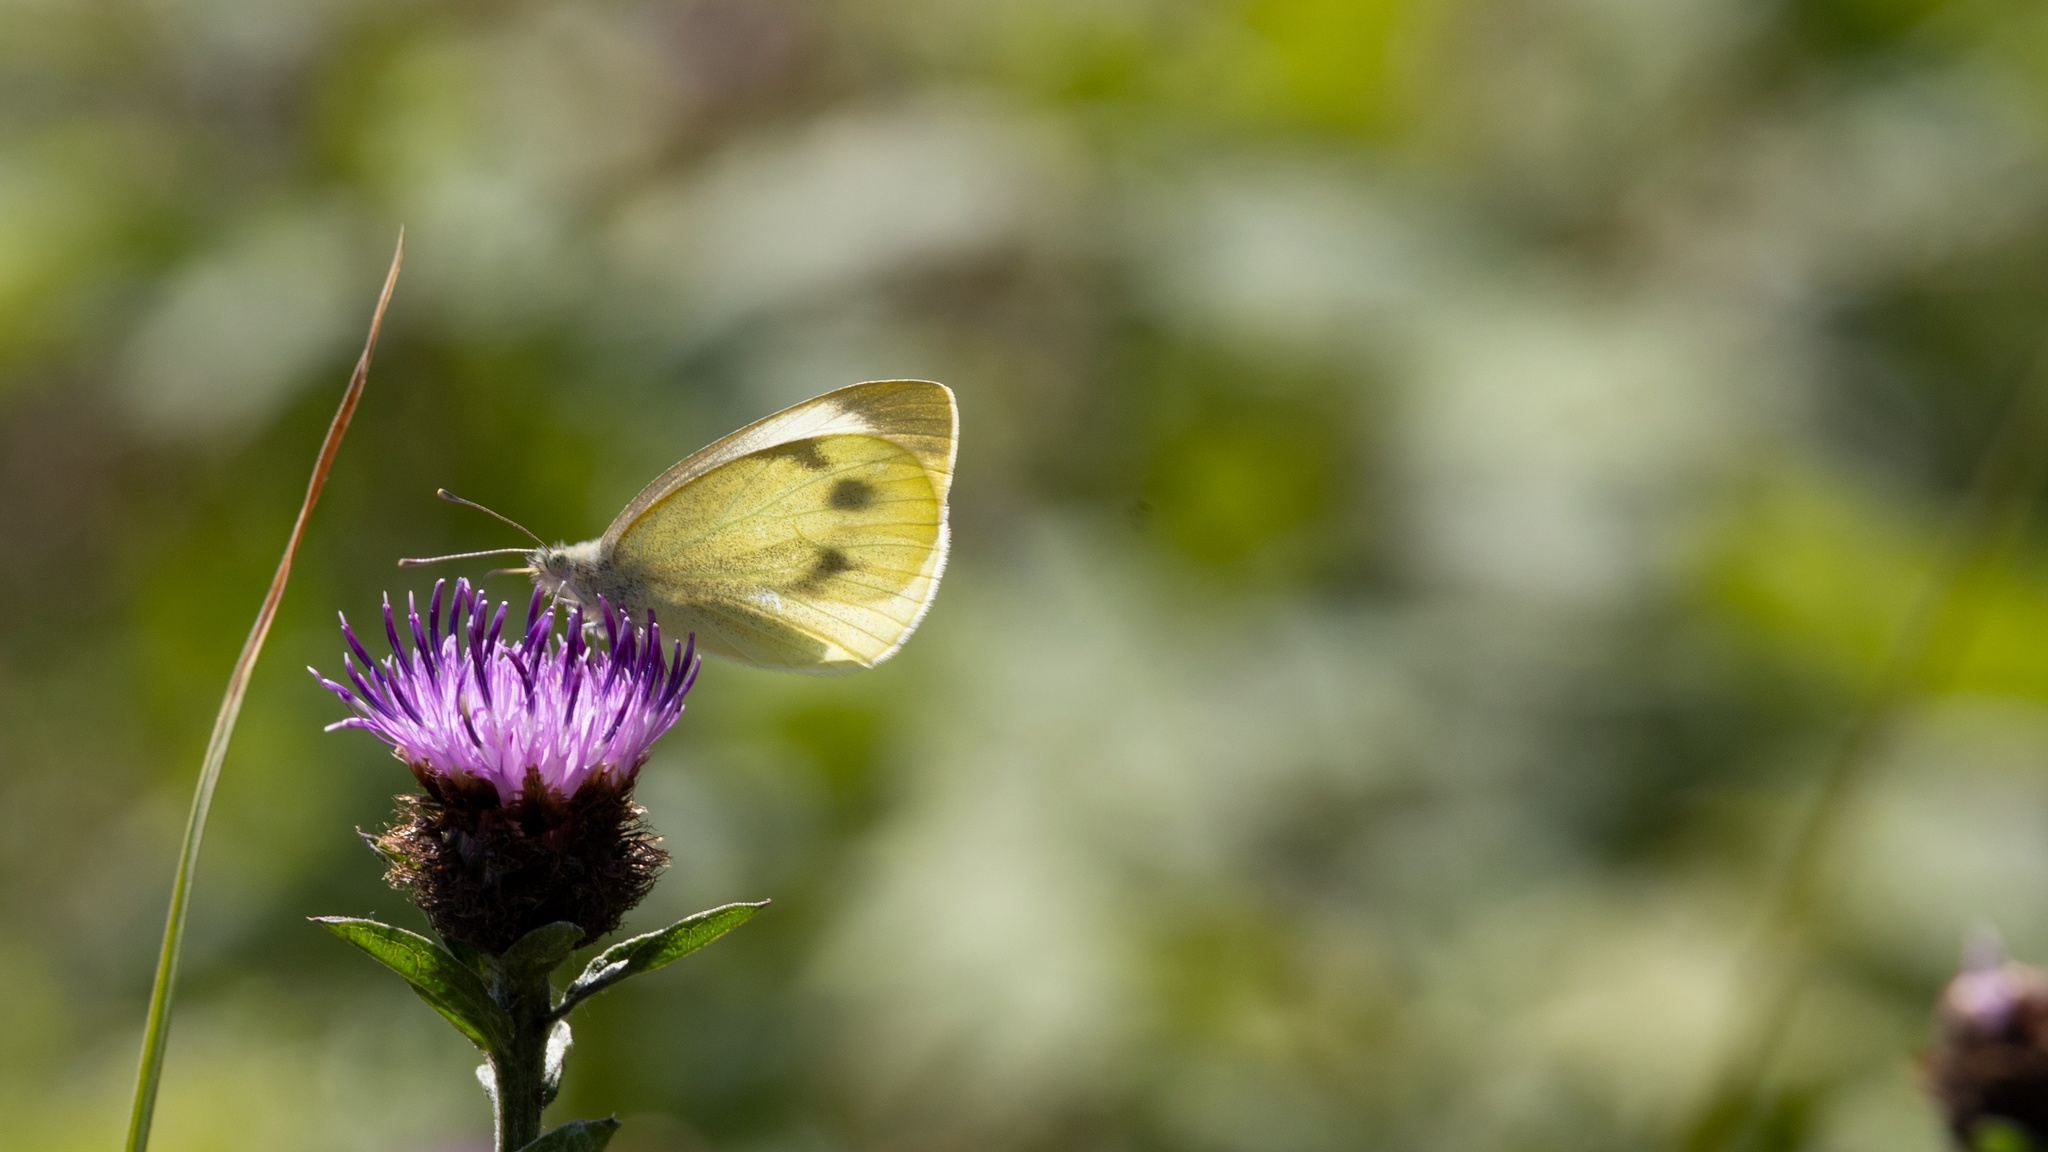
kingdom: Animalia
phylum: Arthropoda
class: Insecta
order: Lepidoptera
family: Pieridae
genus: Pieris
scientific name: Pieris rapae
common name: Small white
